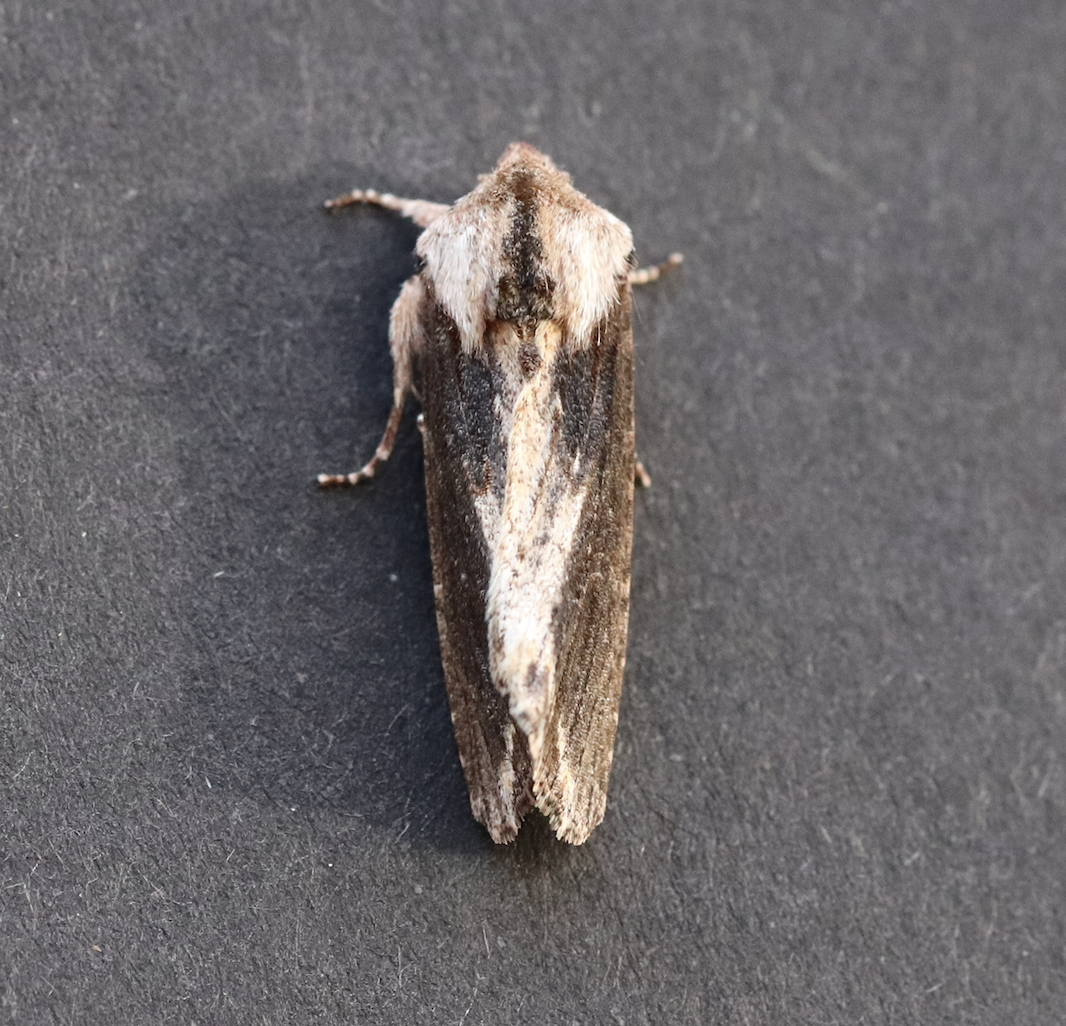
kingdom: Animalia
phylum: Arthropoda
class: Insecta
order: Lepidoptera
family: Noctuidae
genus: Egira
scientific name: Egira conspicillaris
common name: Silver cloud
